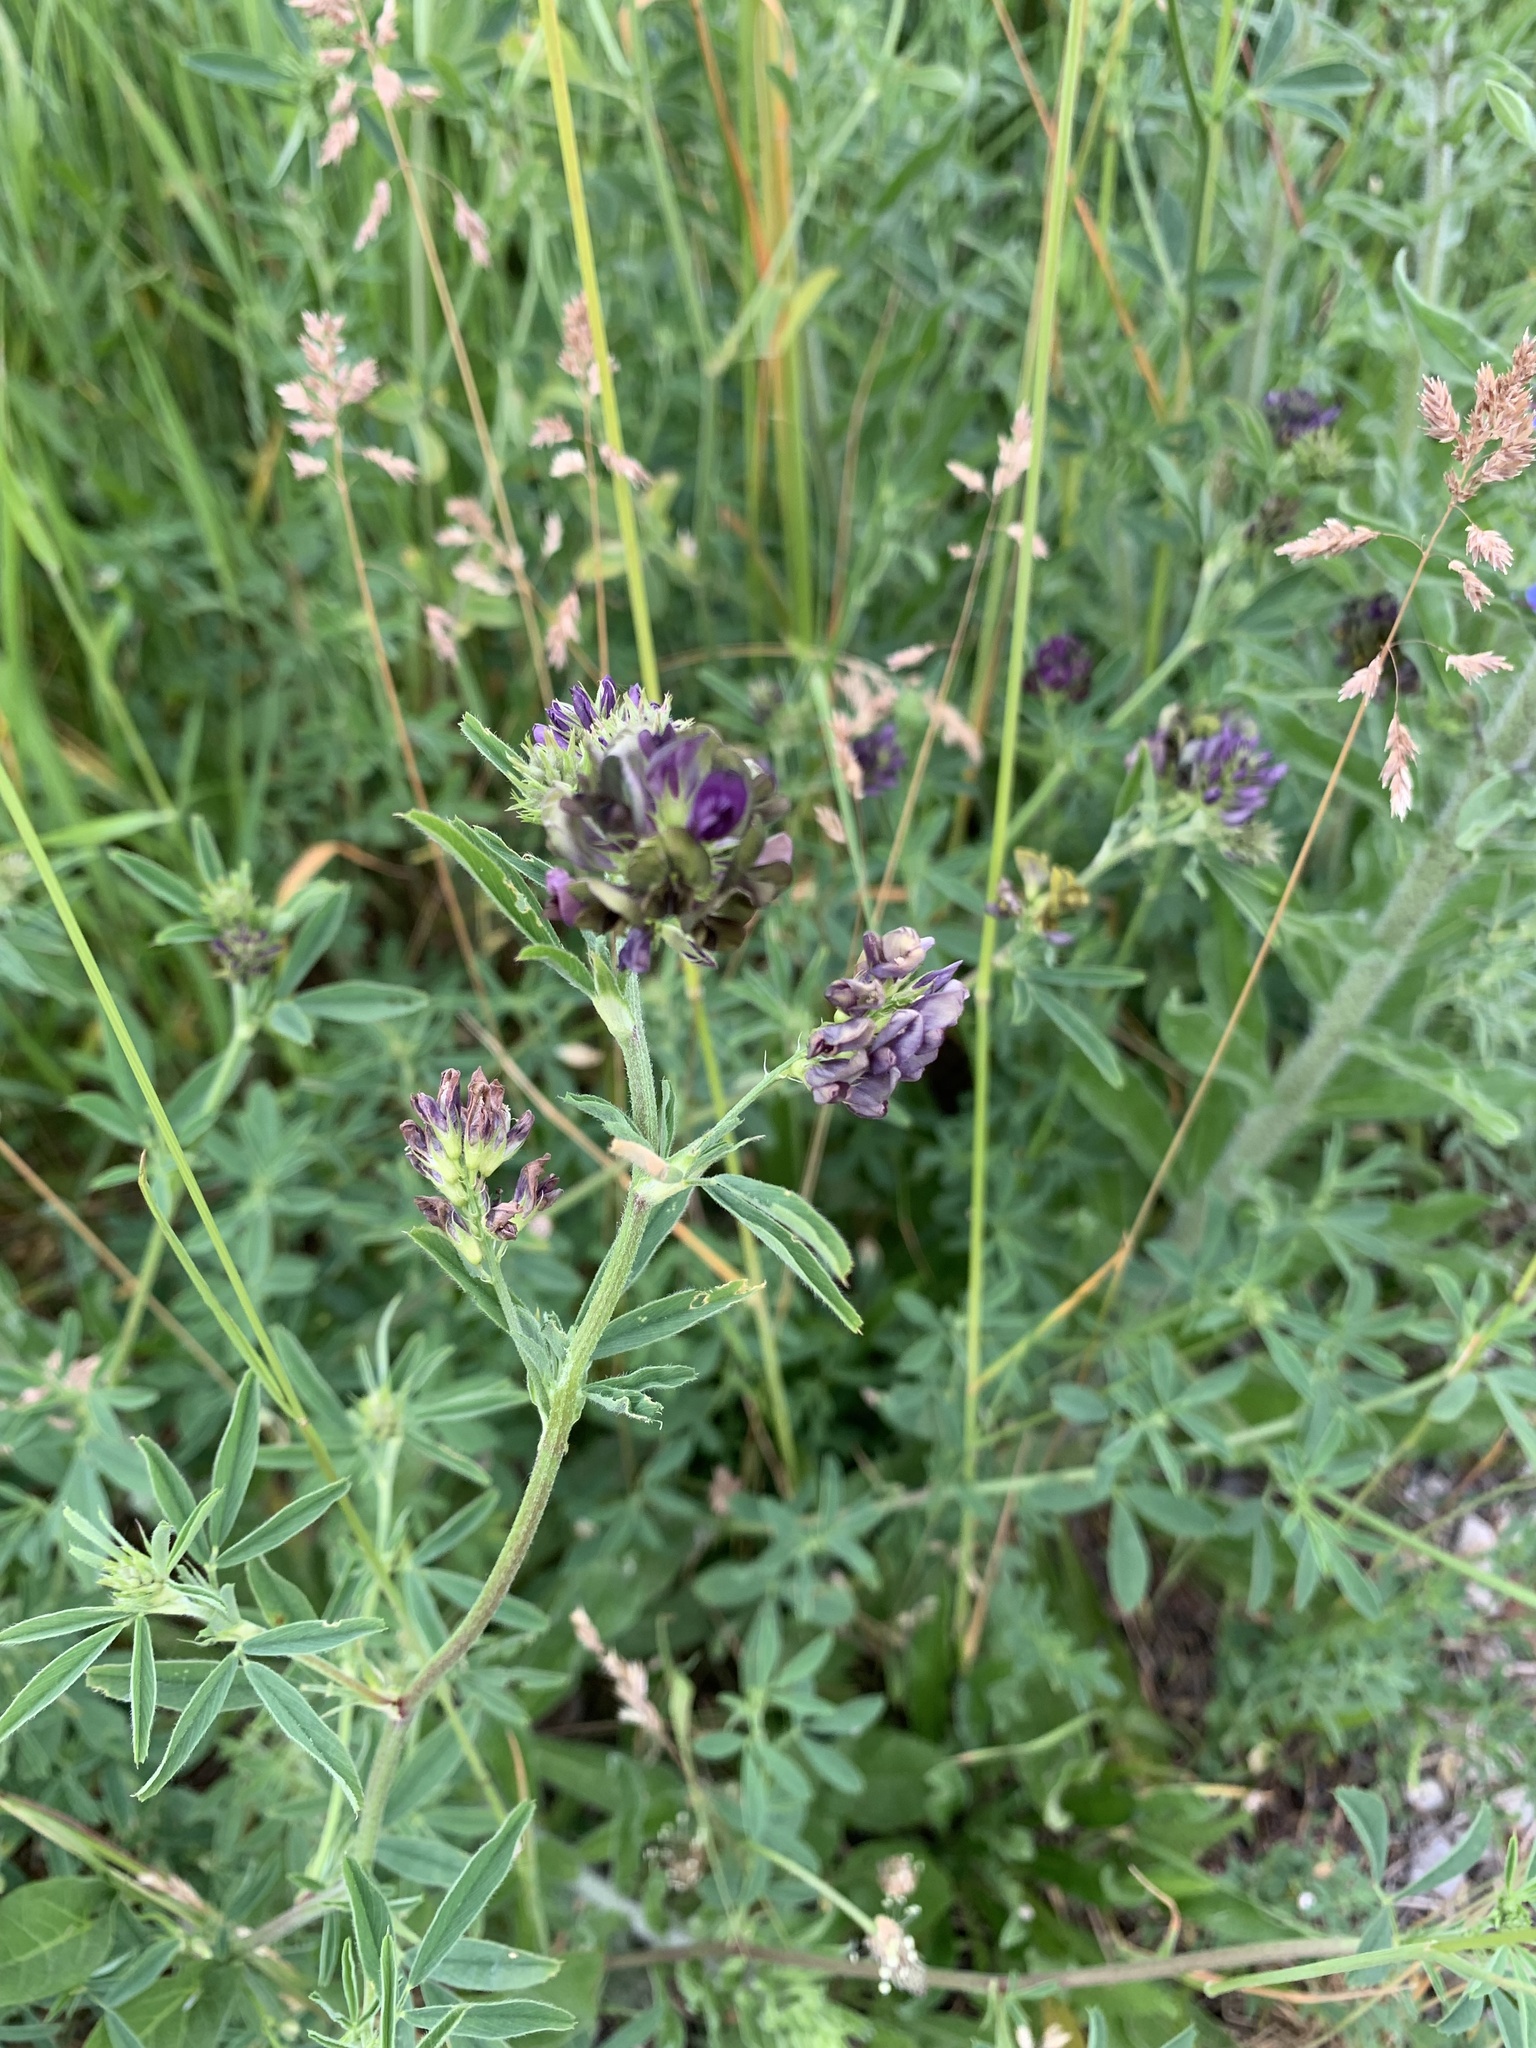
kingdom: Plantae
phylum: Tracheophyta
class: Magnoliopsida
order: Fabales
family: Fabaceae
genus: Medicago
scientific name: Medicago varia
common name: Sand lucerne
